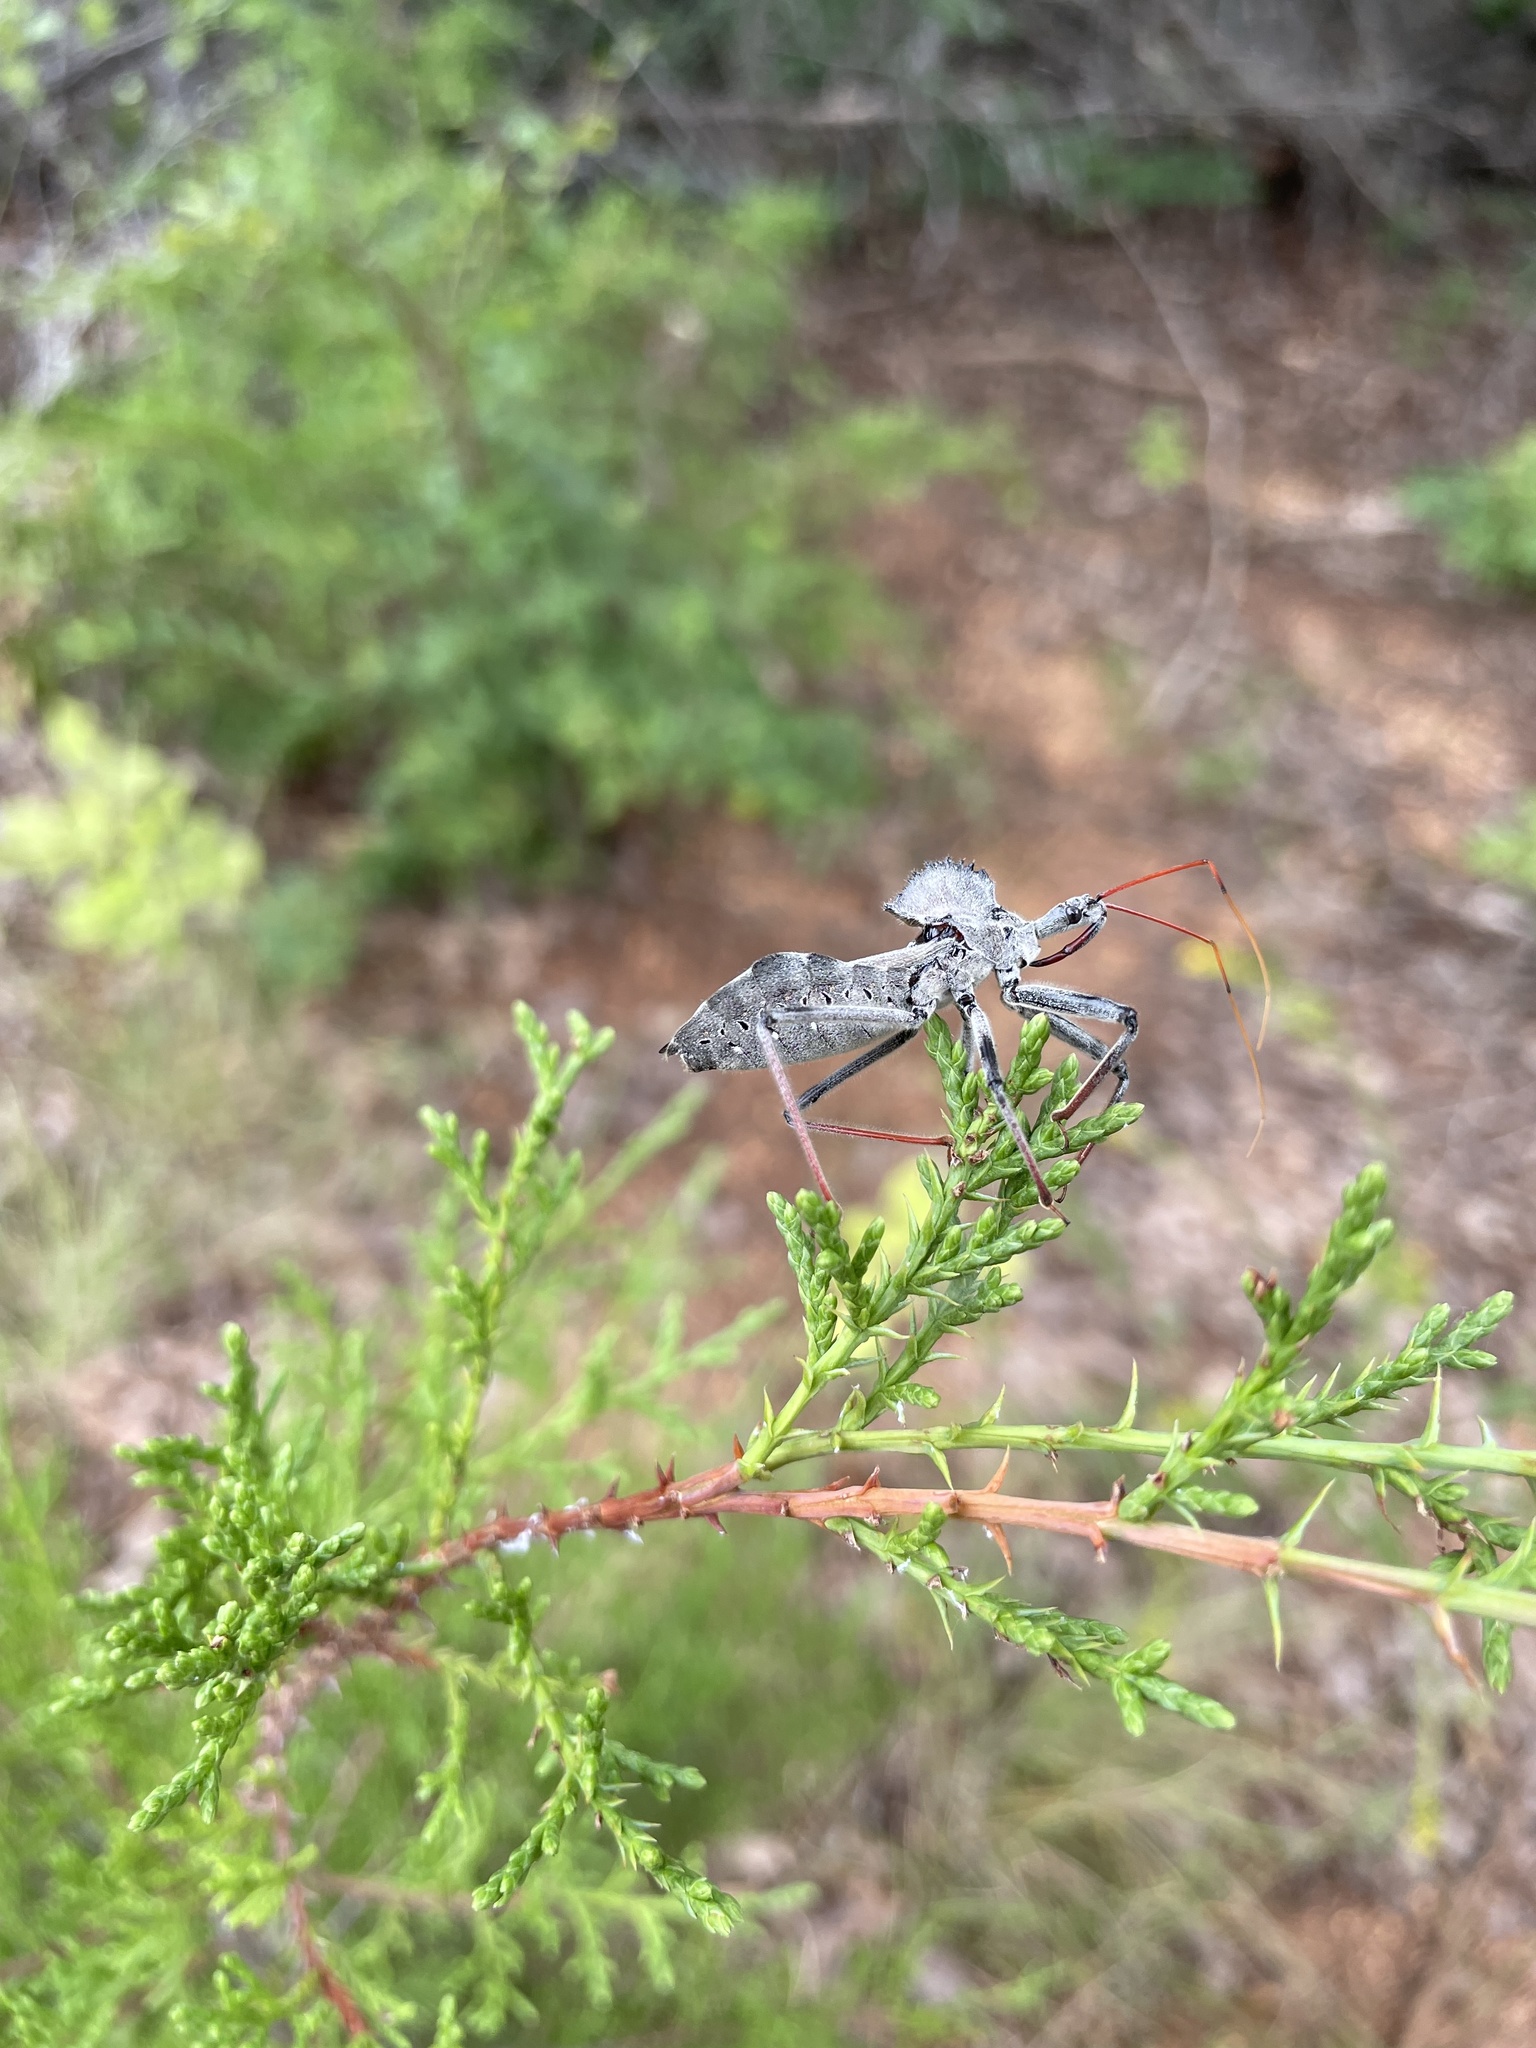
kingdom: Animalia
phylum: Arthropoda
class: Insecta
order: Hemiptera
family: Reduviidae
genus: Arilus
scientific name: Arilus cristatus
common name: North american wheel bug
